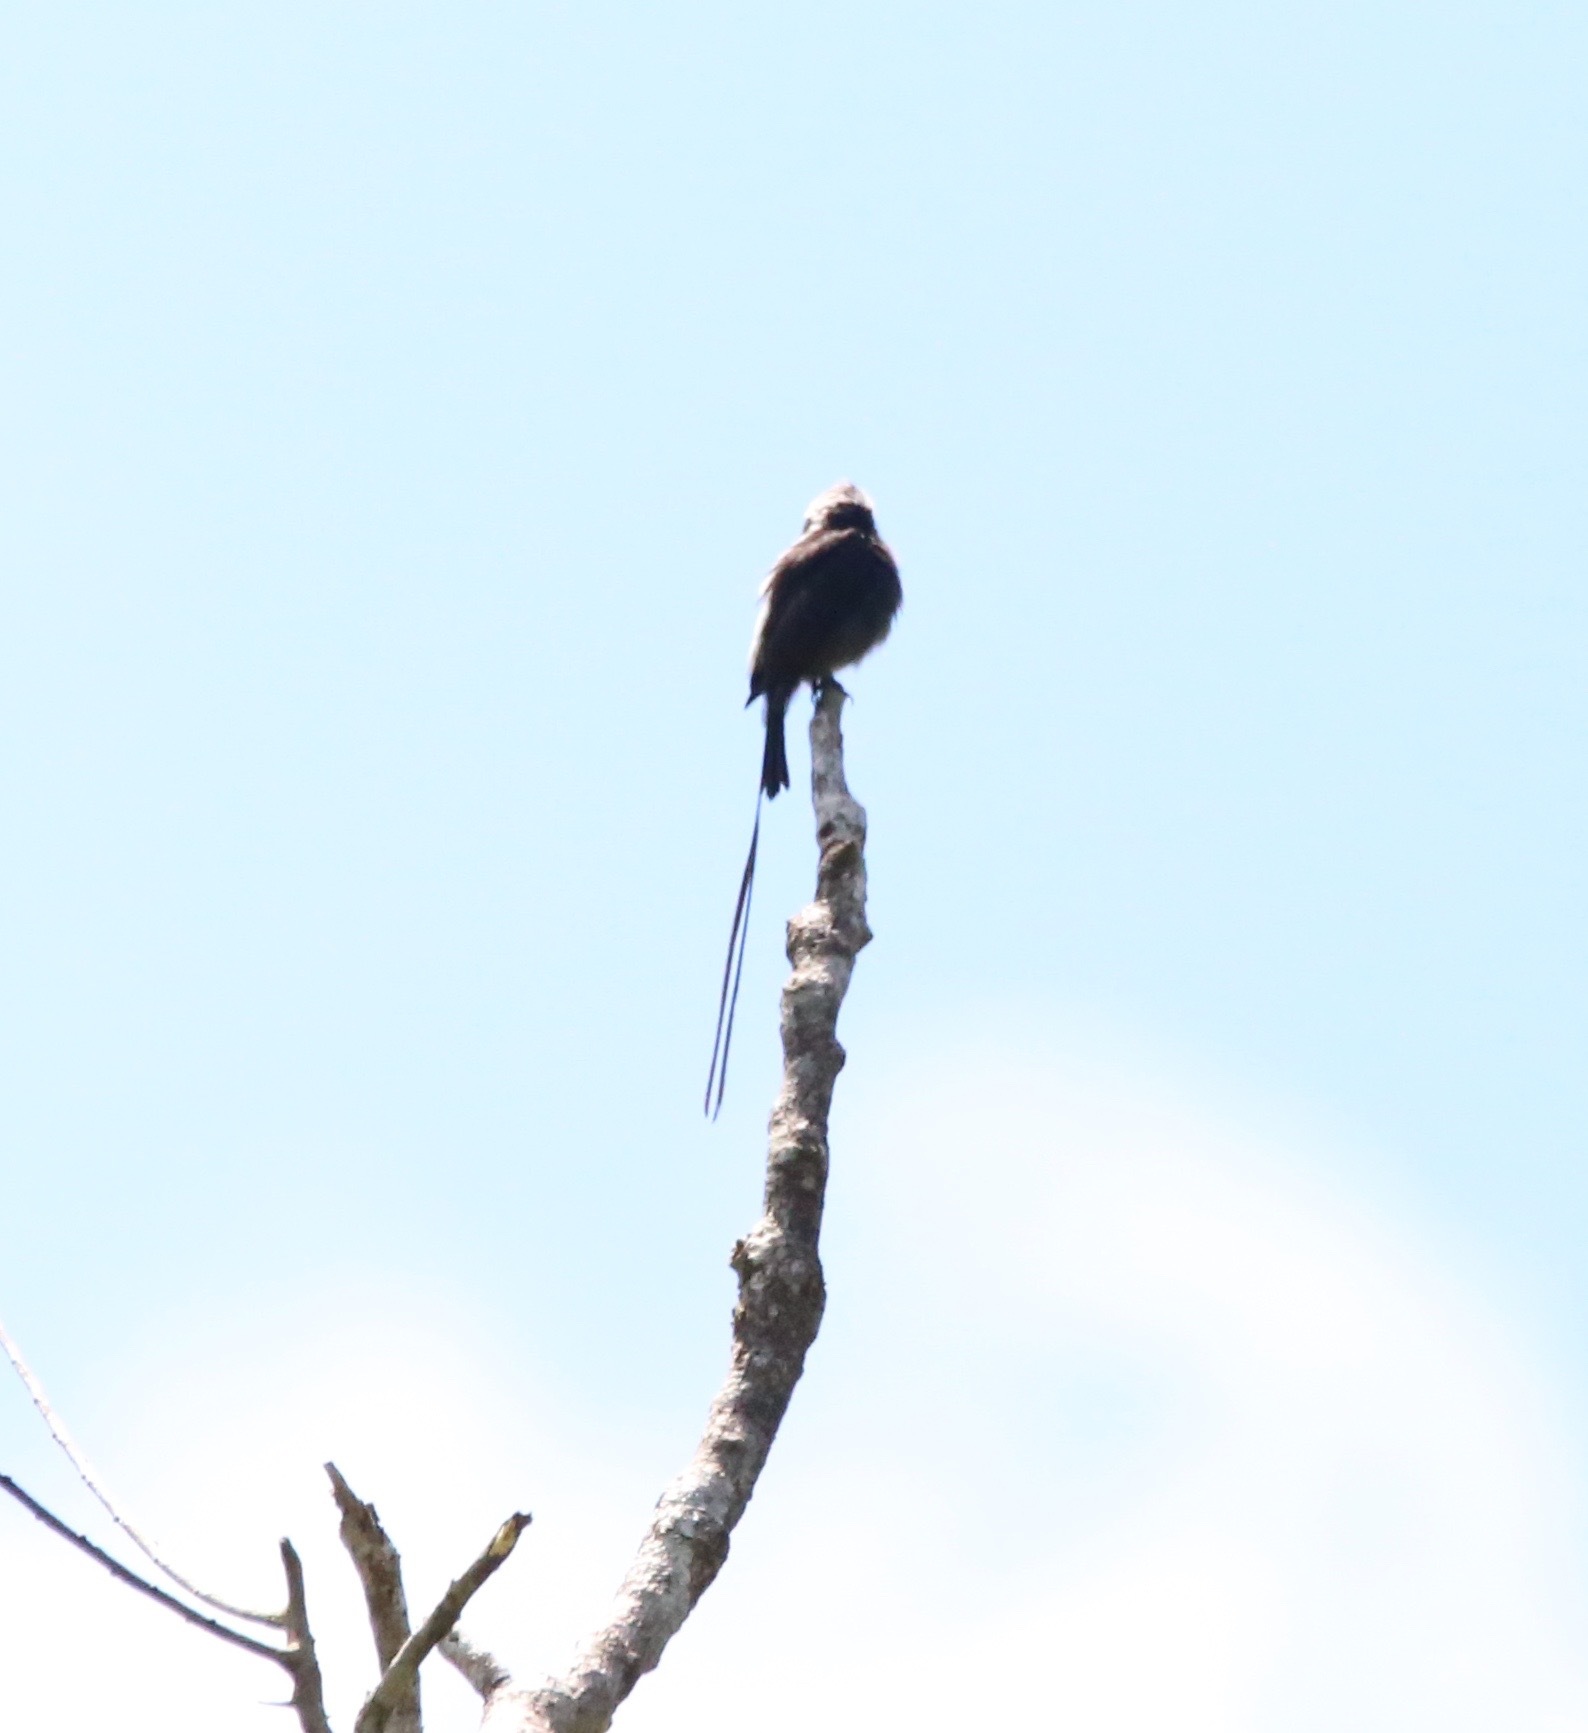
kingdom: Animalia
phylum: Chordata
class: Aves
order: Passeriformes
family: Tyrannidae
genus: Colonia
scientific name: Colonia colonus
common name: Long-tailed tyrant
